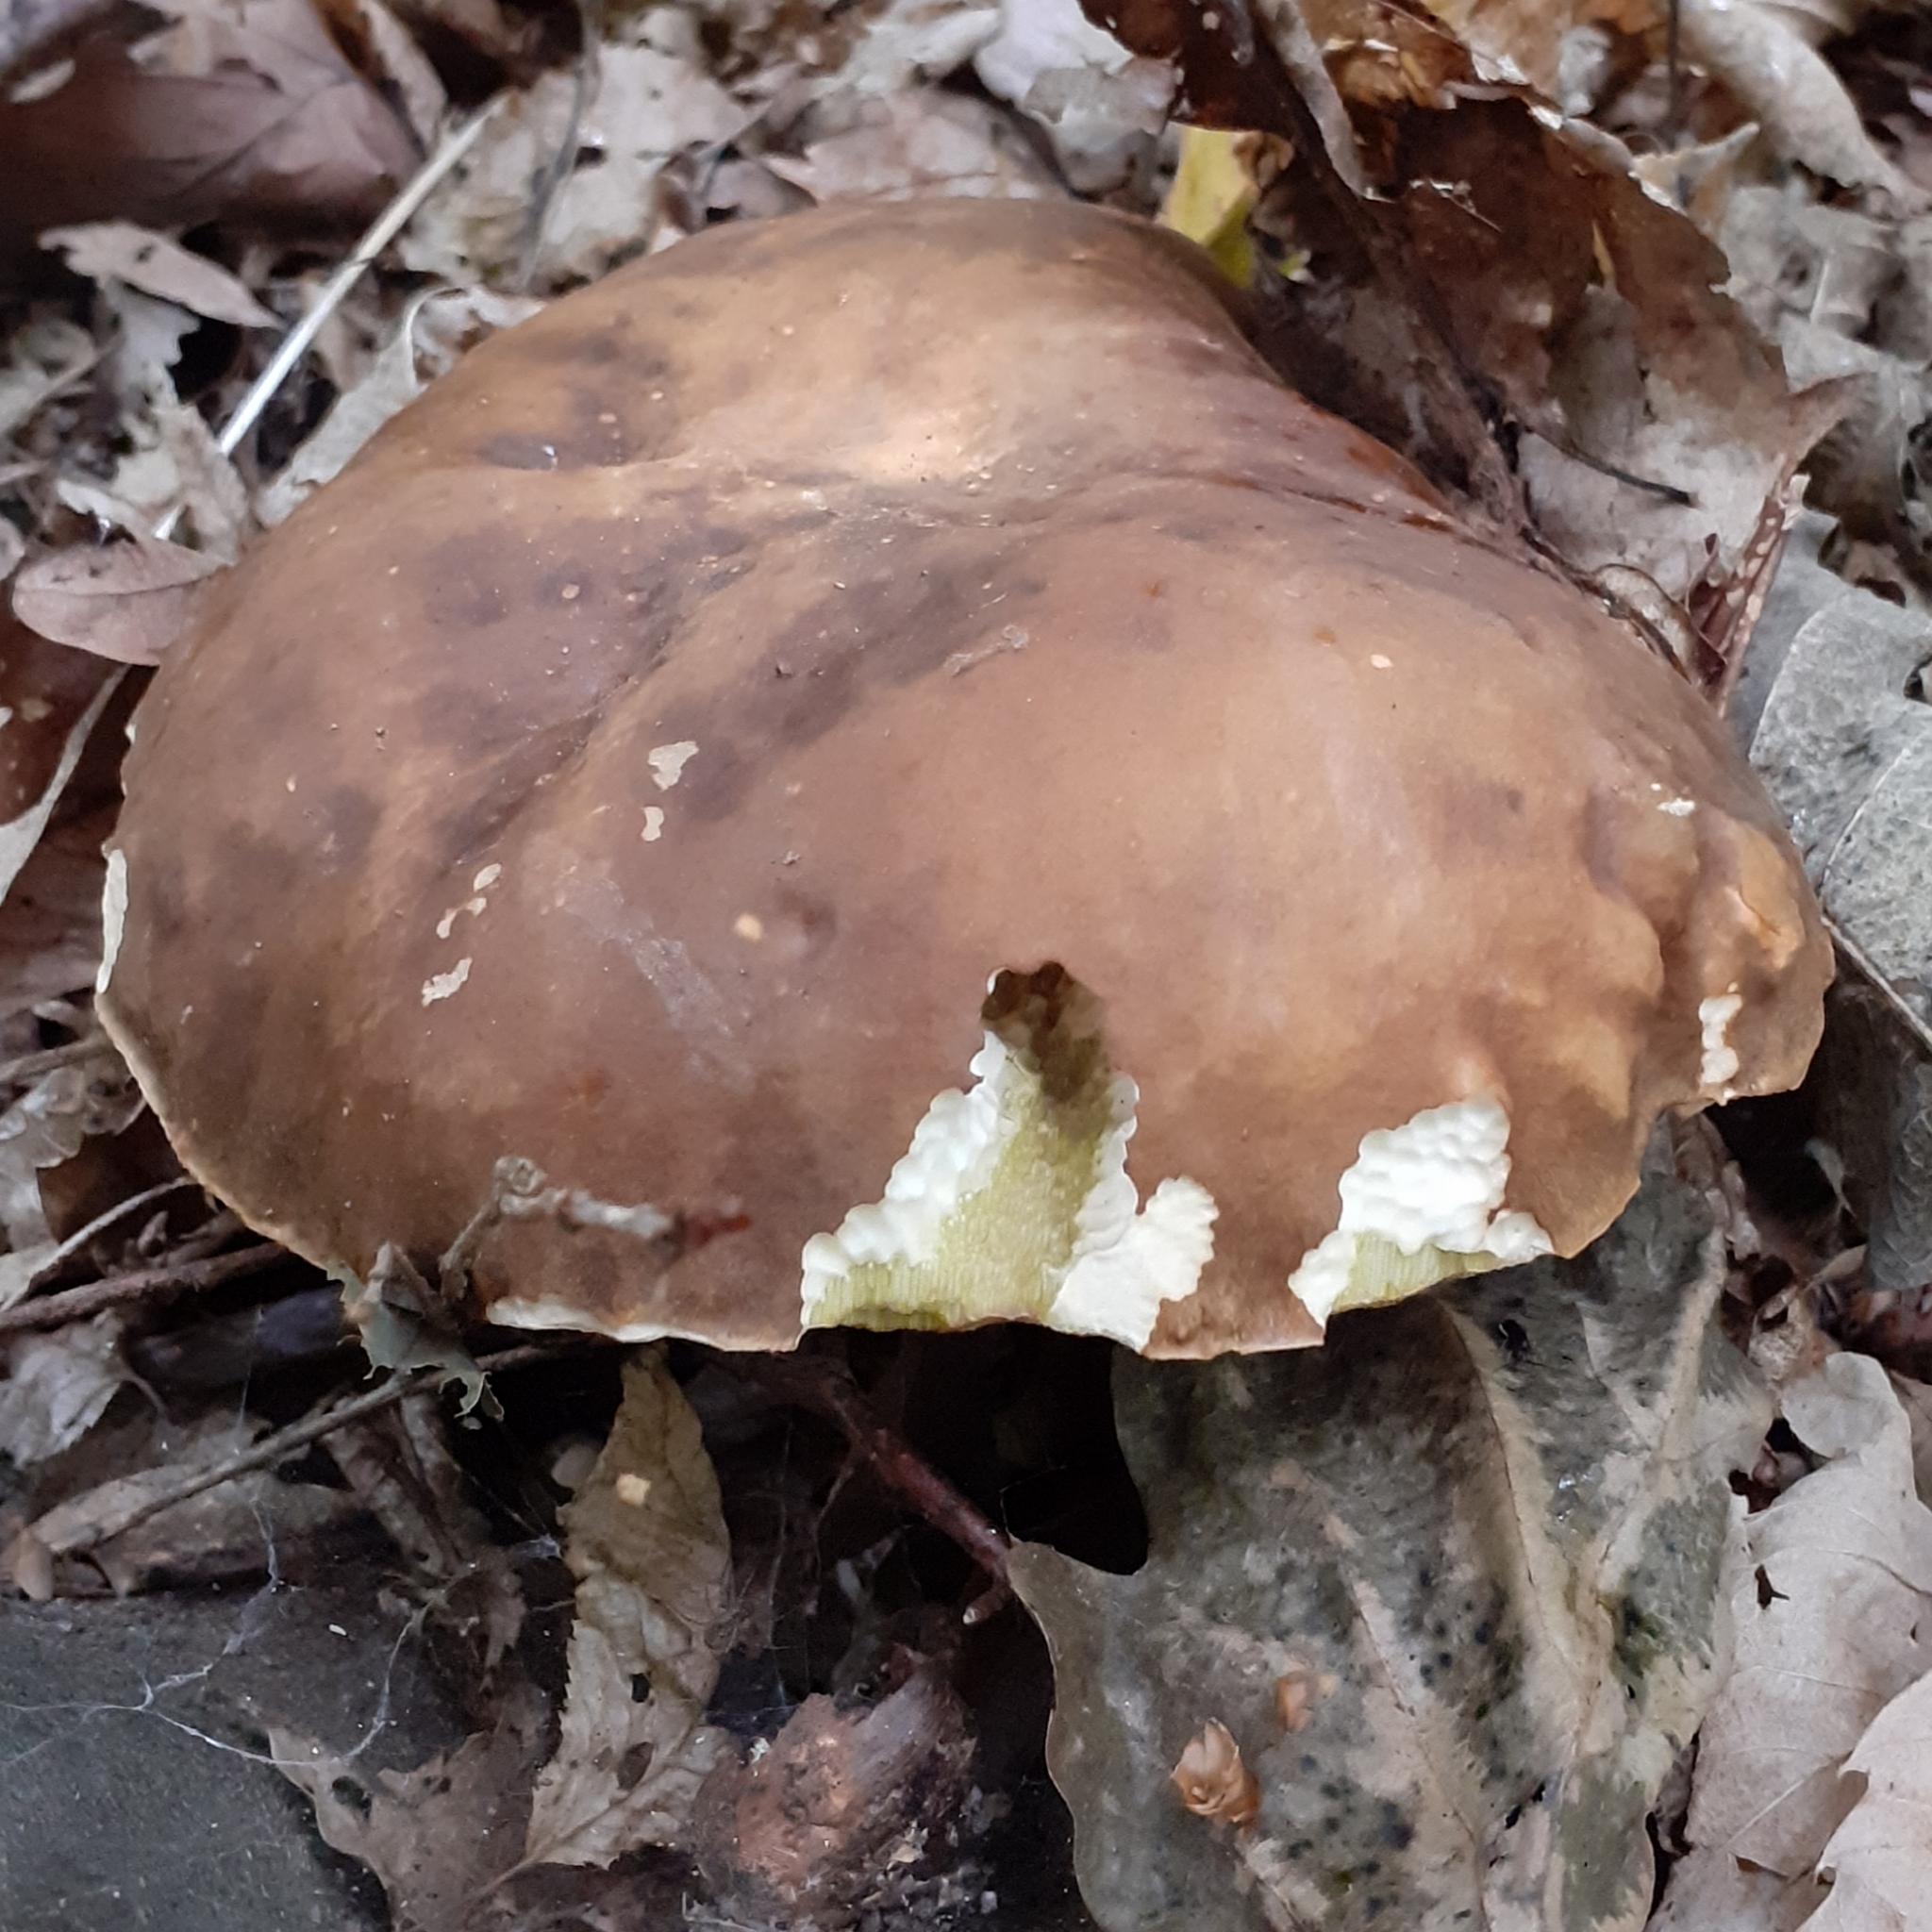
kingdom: Fungi
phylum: Basidiomycota
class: Agaricomycetes
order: Boletales
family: Boletaceae
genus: Boletus
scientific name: Boletus aereus
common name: Bronze bolete
